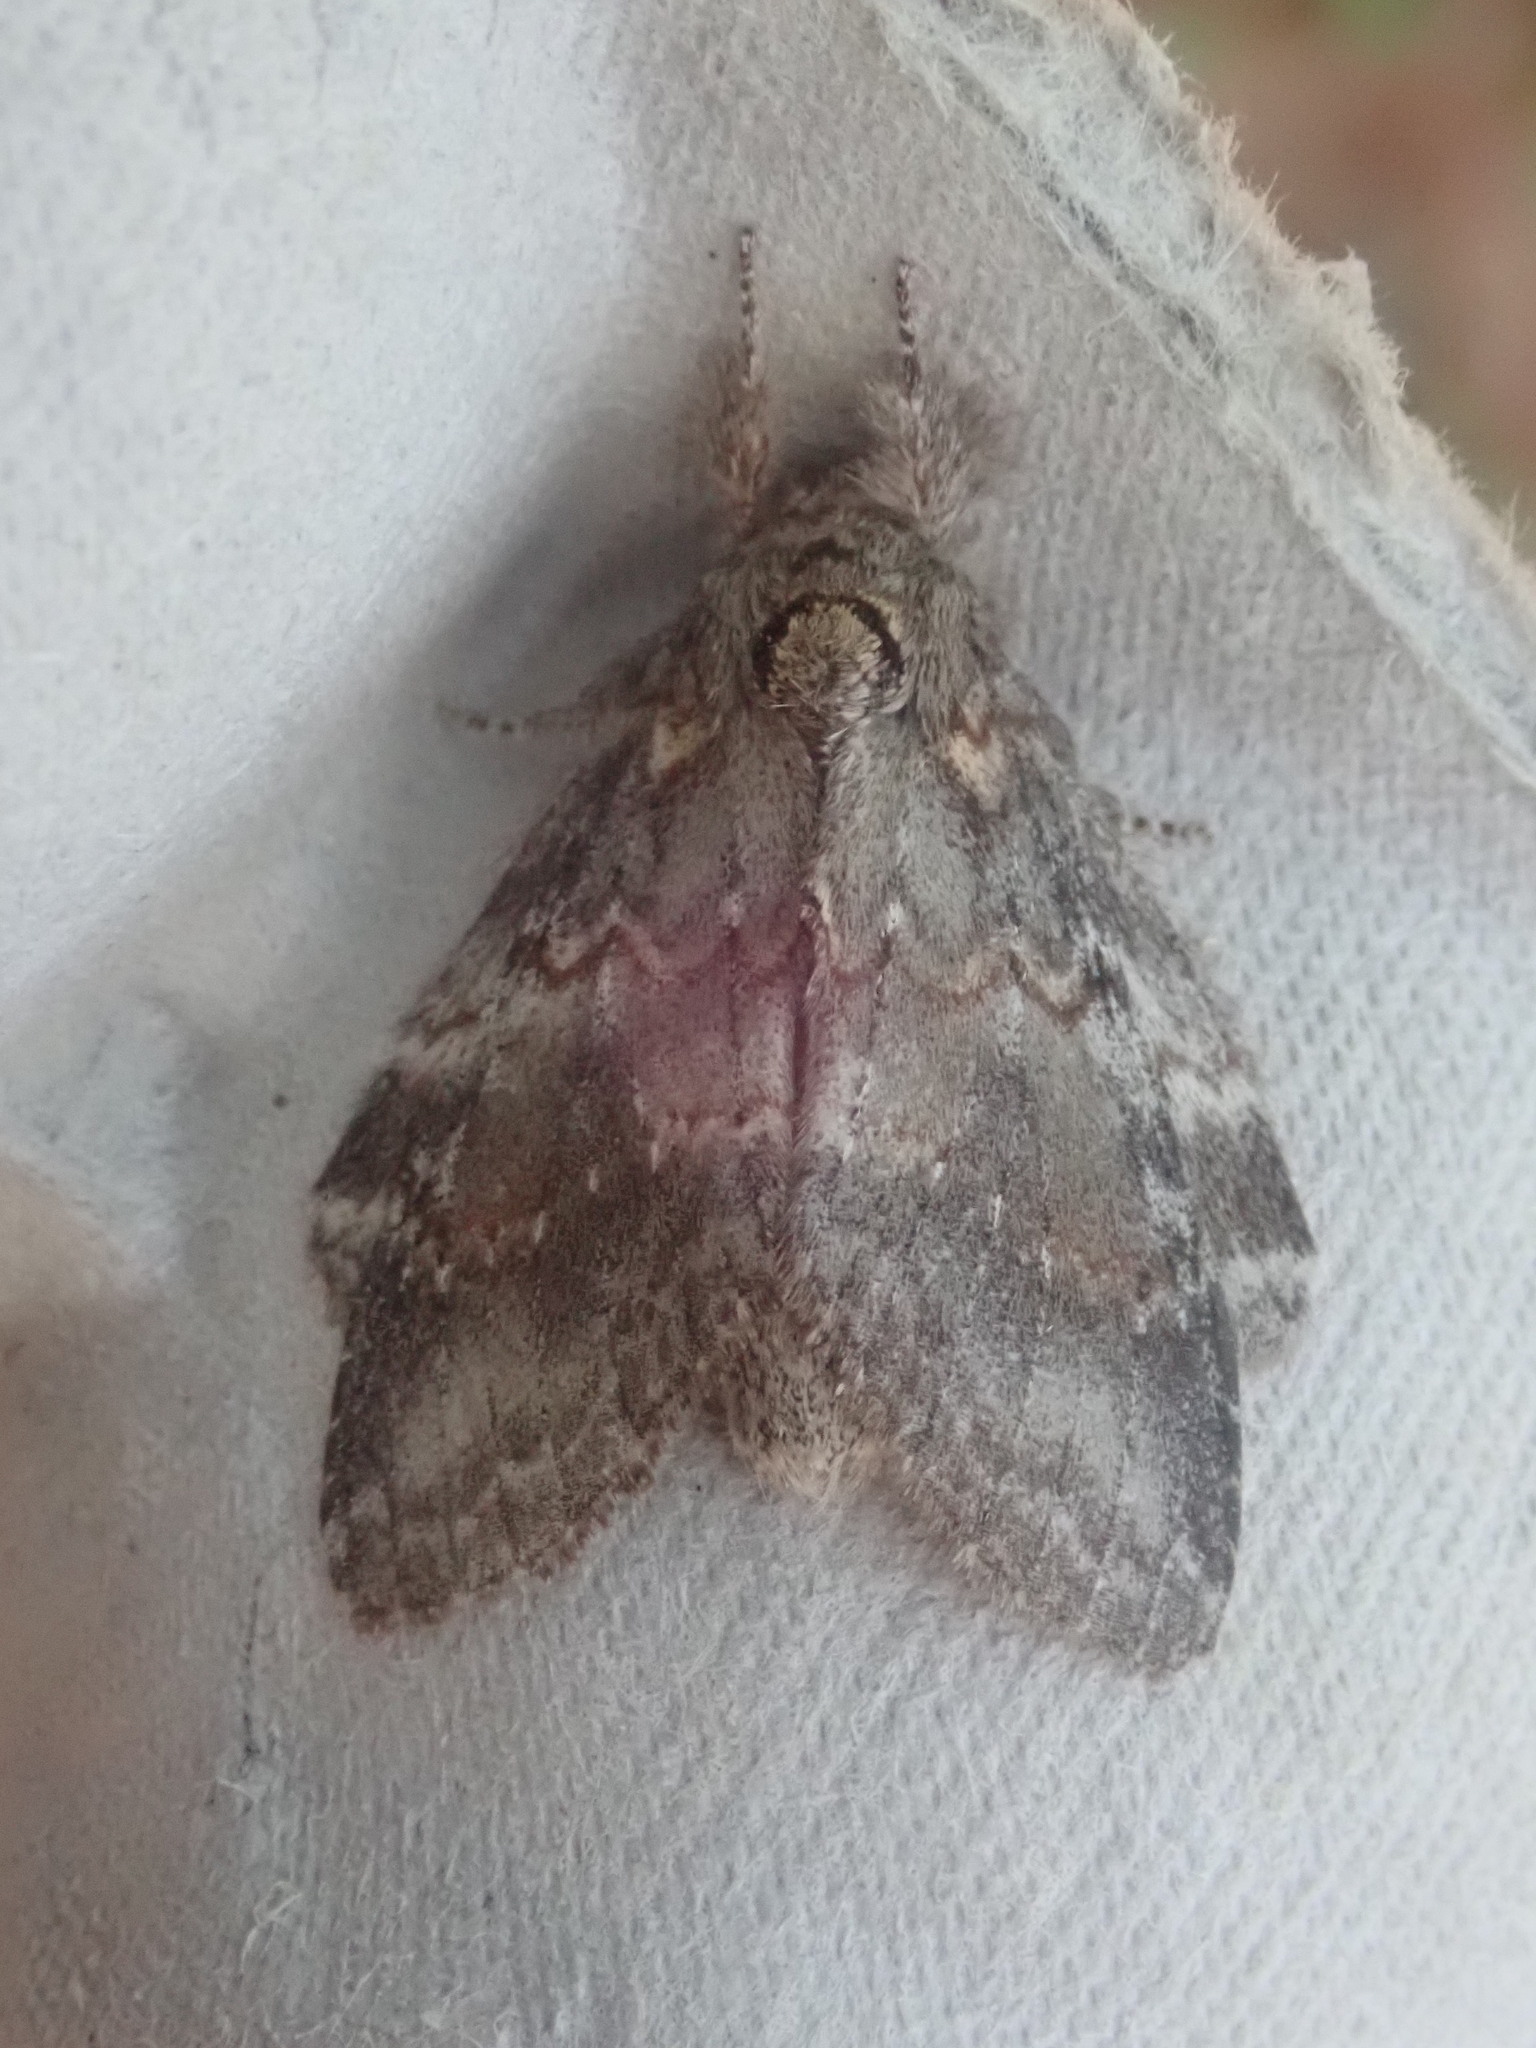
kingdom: Animalia
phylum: Arthropoda
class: Insecta
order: Lepidoptera
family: Notodontidae
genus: Peridea
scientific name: Peridea angulosa
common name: Angulose prominent
